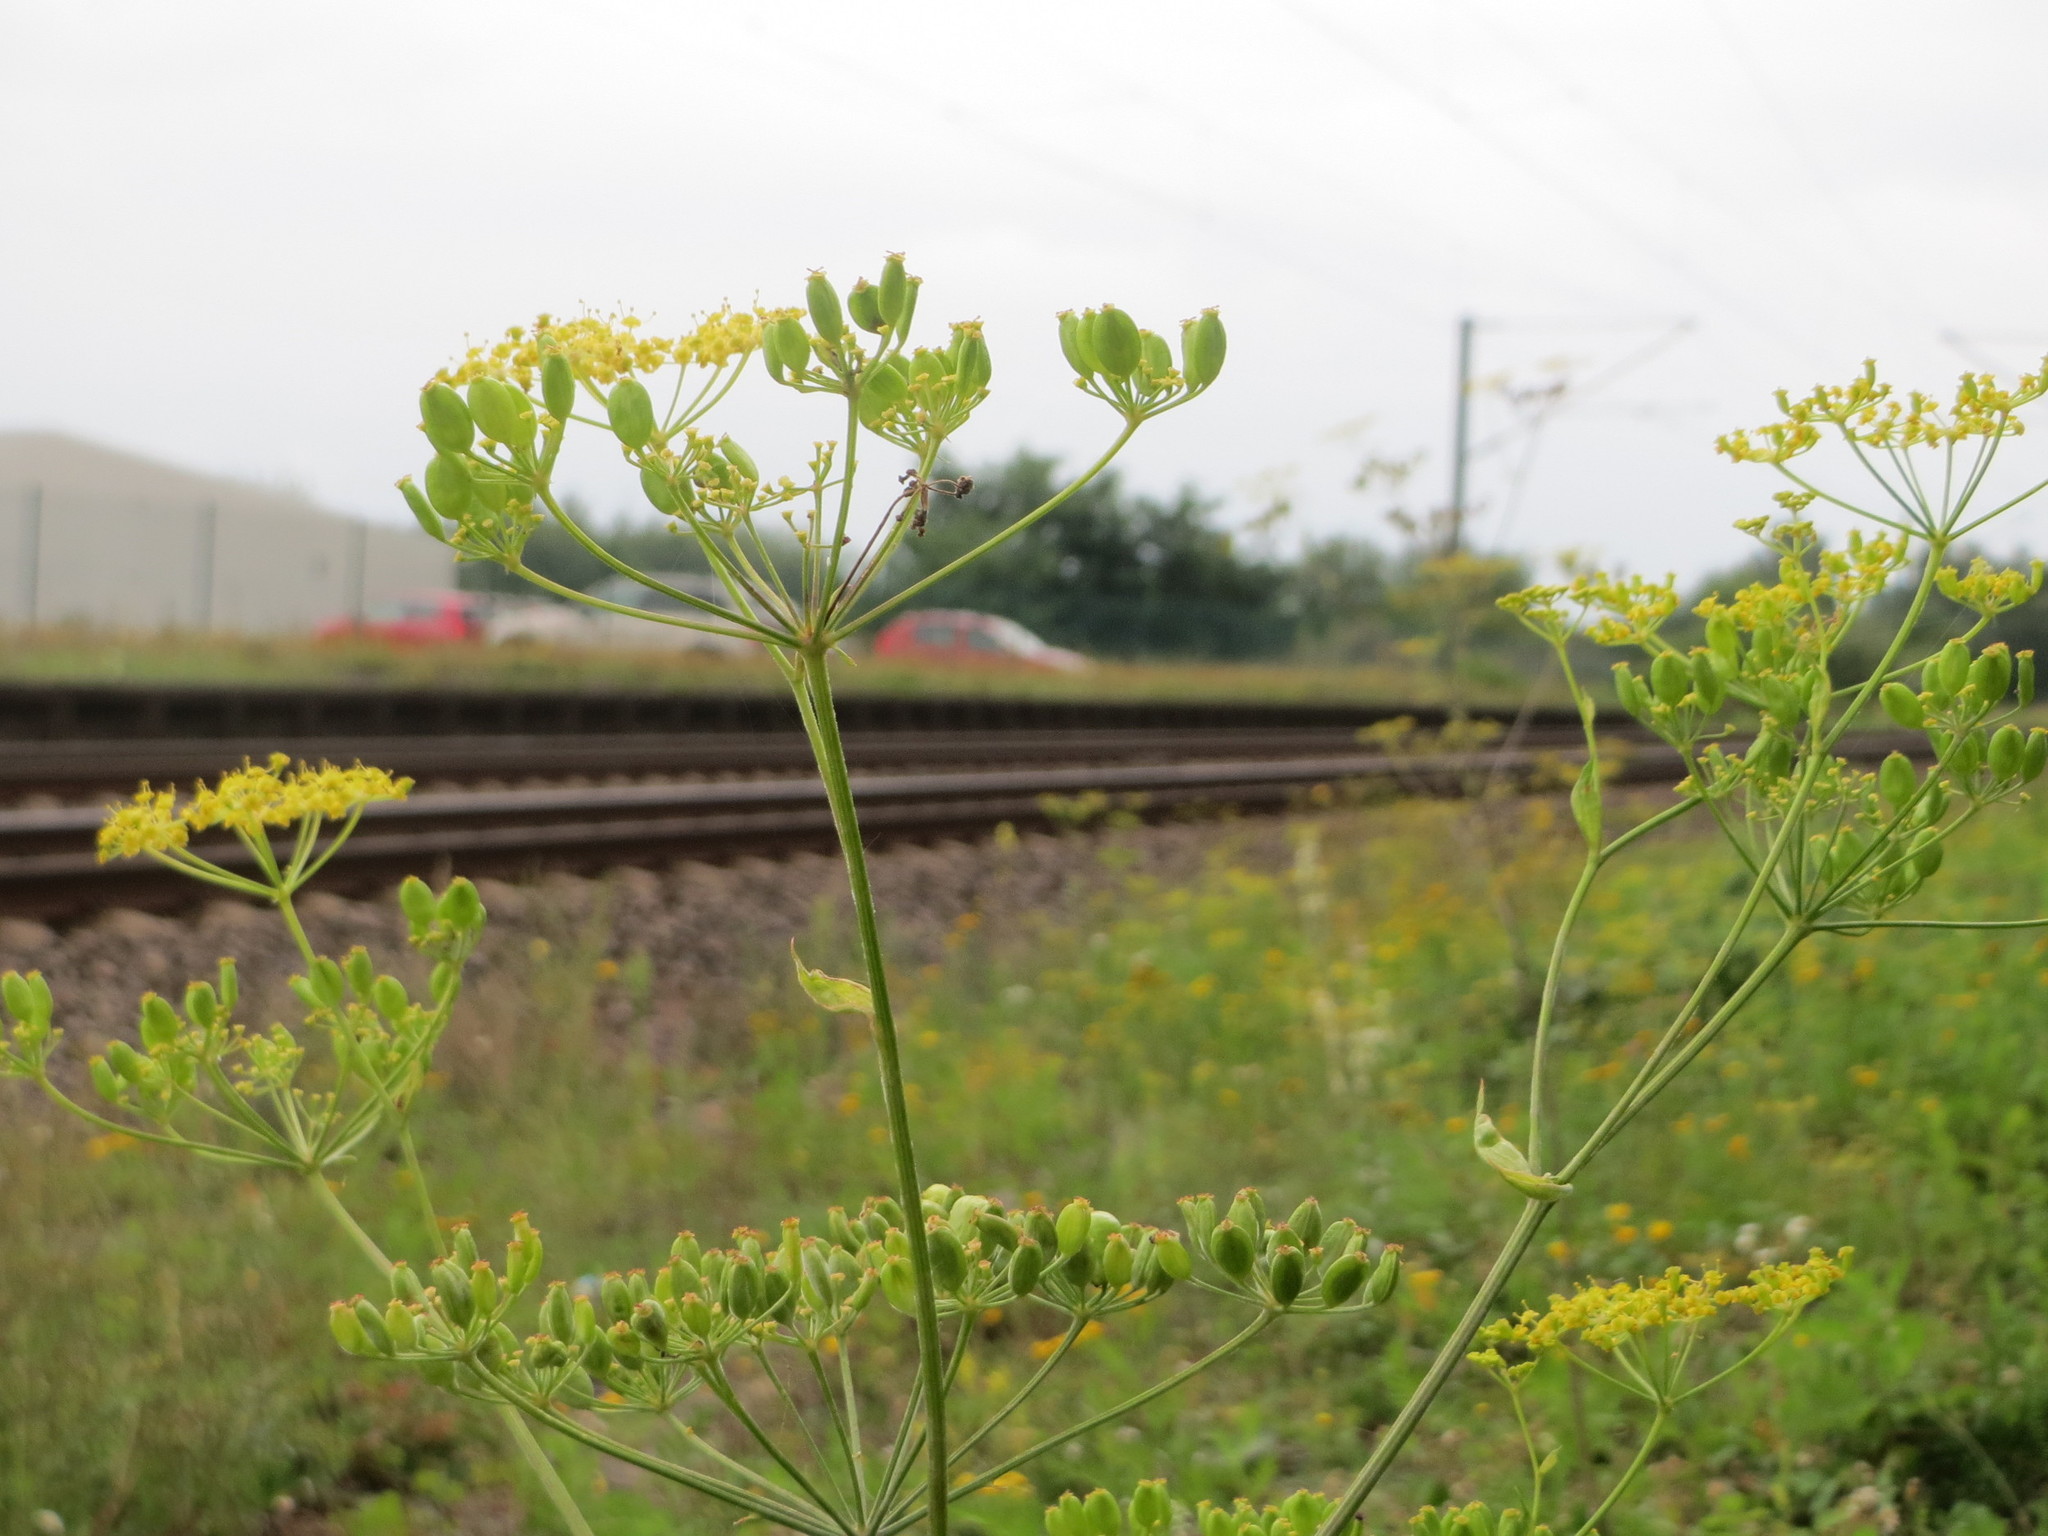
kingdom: Plantae
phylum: Tracheophyta
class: Magnoliopsida
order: Apiales
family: Apiaceae
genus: Pastinaca
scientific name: Pastinaca sativa
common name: Wild parsnip
